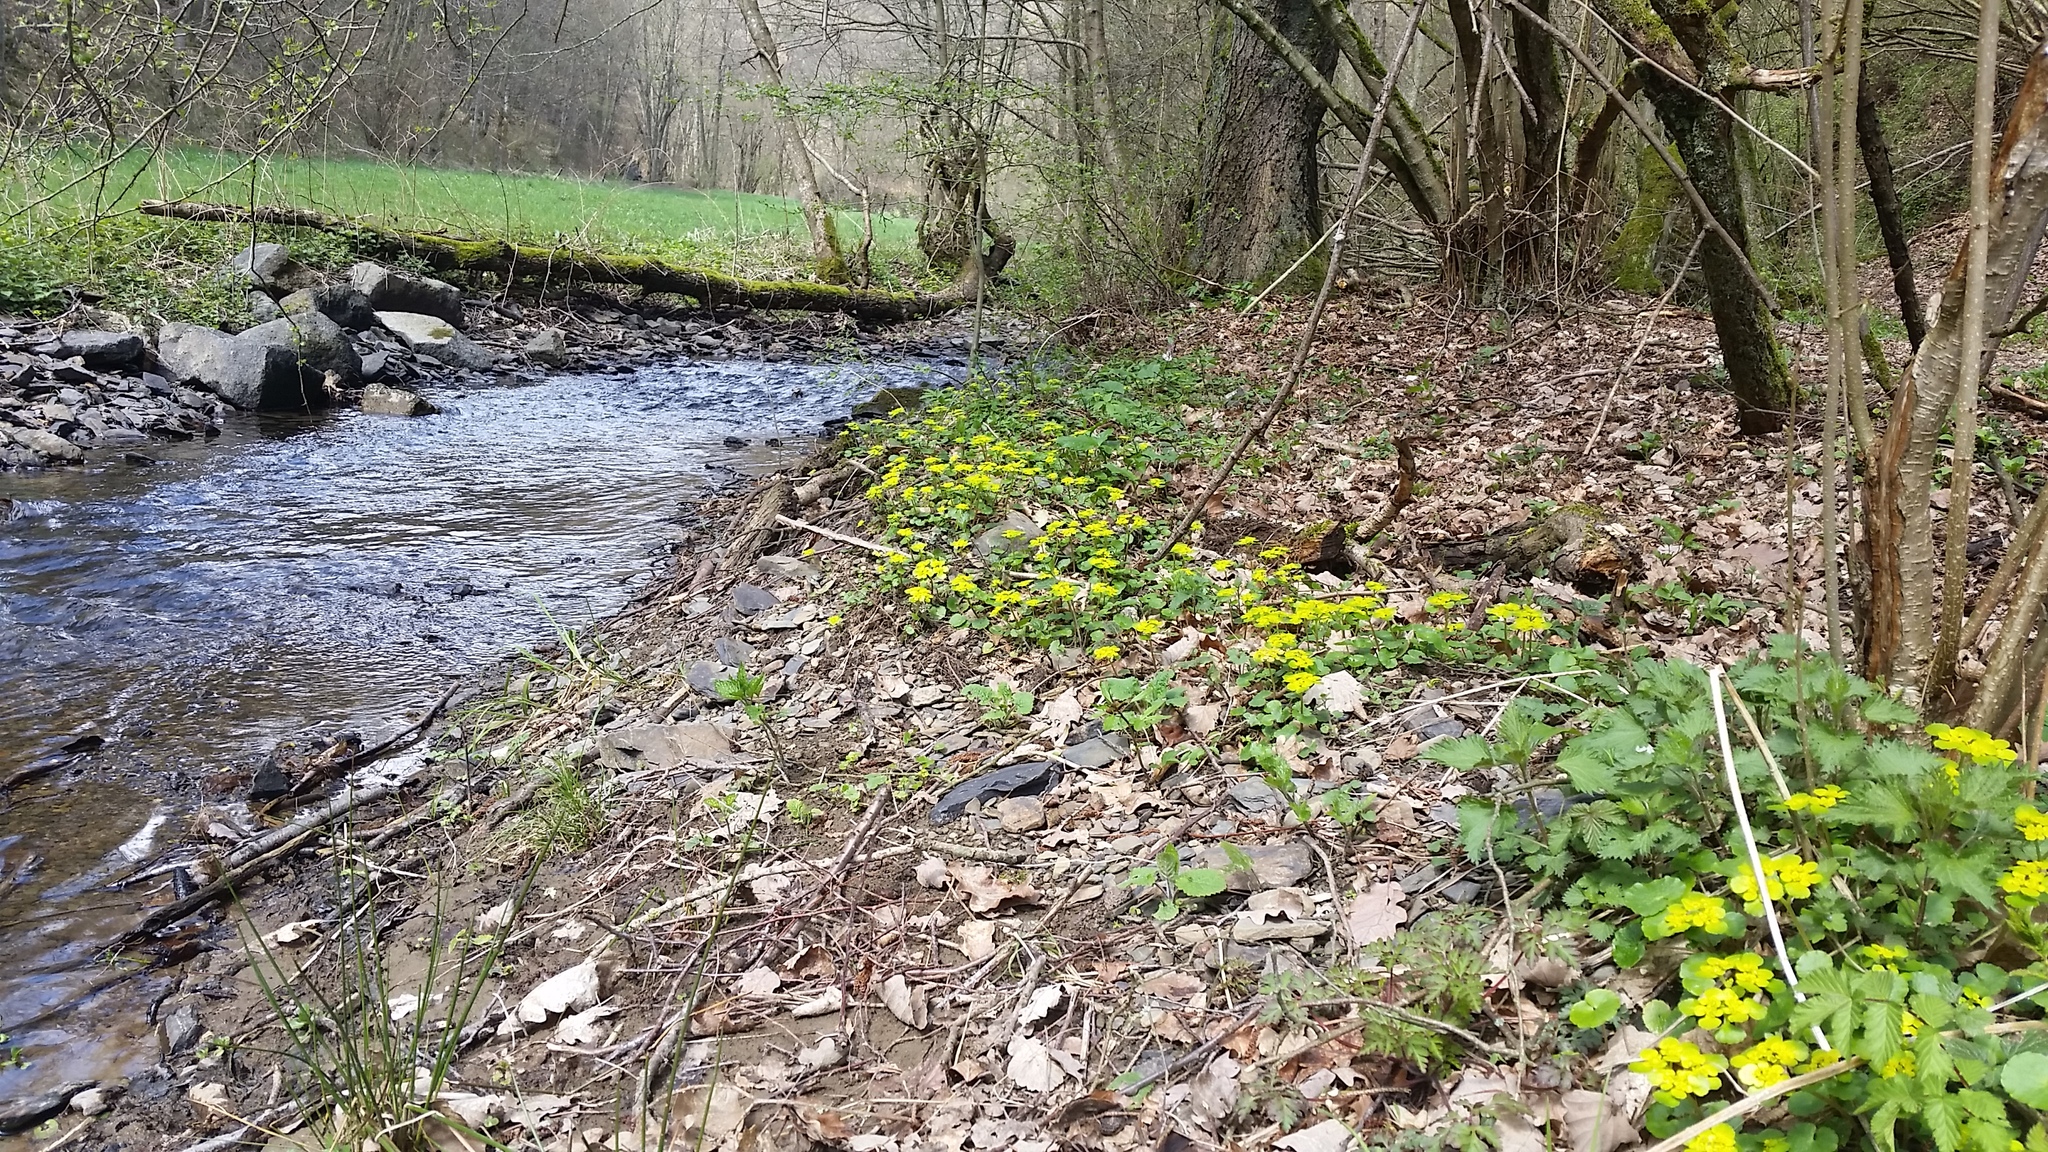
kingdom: Plantae
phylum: Tracheophyta
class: Magnoliopsida
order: Saxifragales
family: Saxifragaceae
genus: Chrysosplenium
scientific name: Chrysosplenium alternifolium
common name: Alternate-leaved golden-saxifrage
